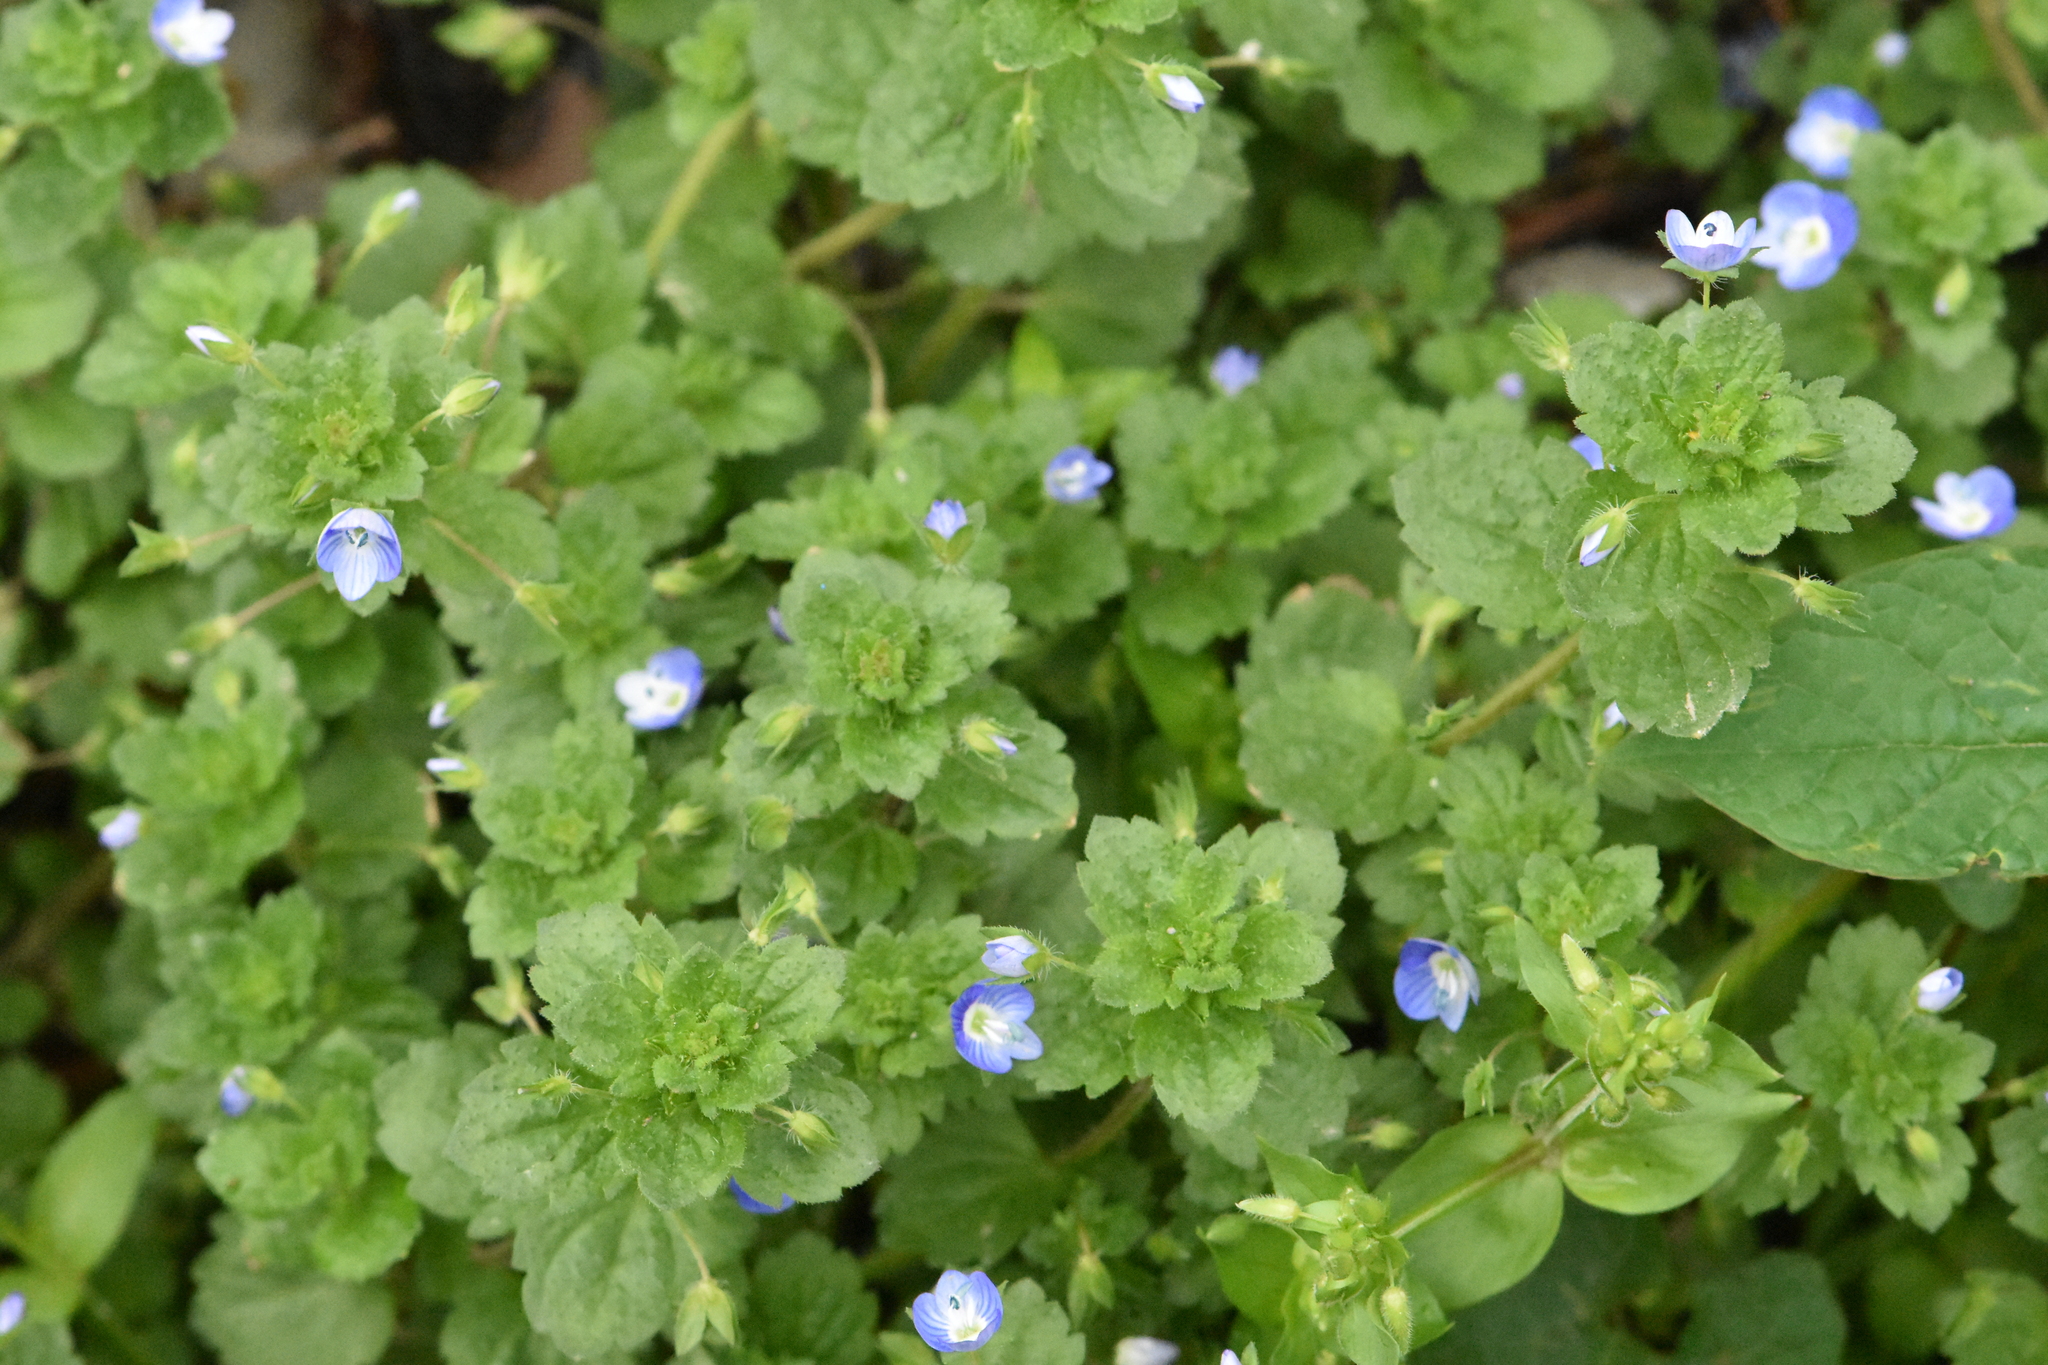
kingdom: Plantae
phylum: Tracheophyta
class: Magnoliopsida
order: Lamiales
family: Plantaginaceae
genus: Veronica
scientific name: Veronica persica
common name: Common field-speedwell
